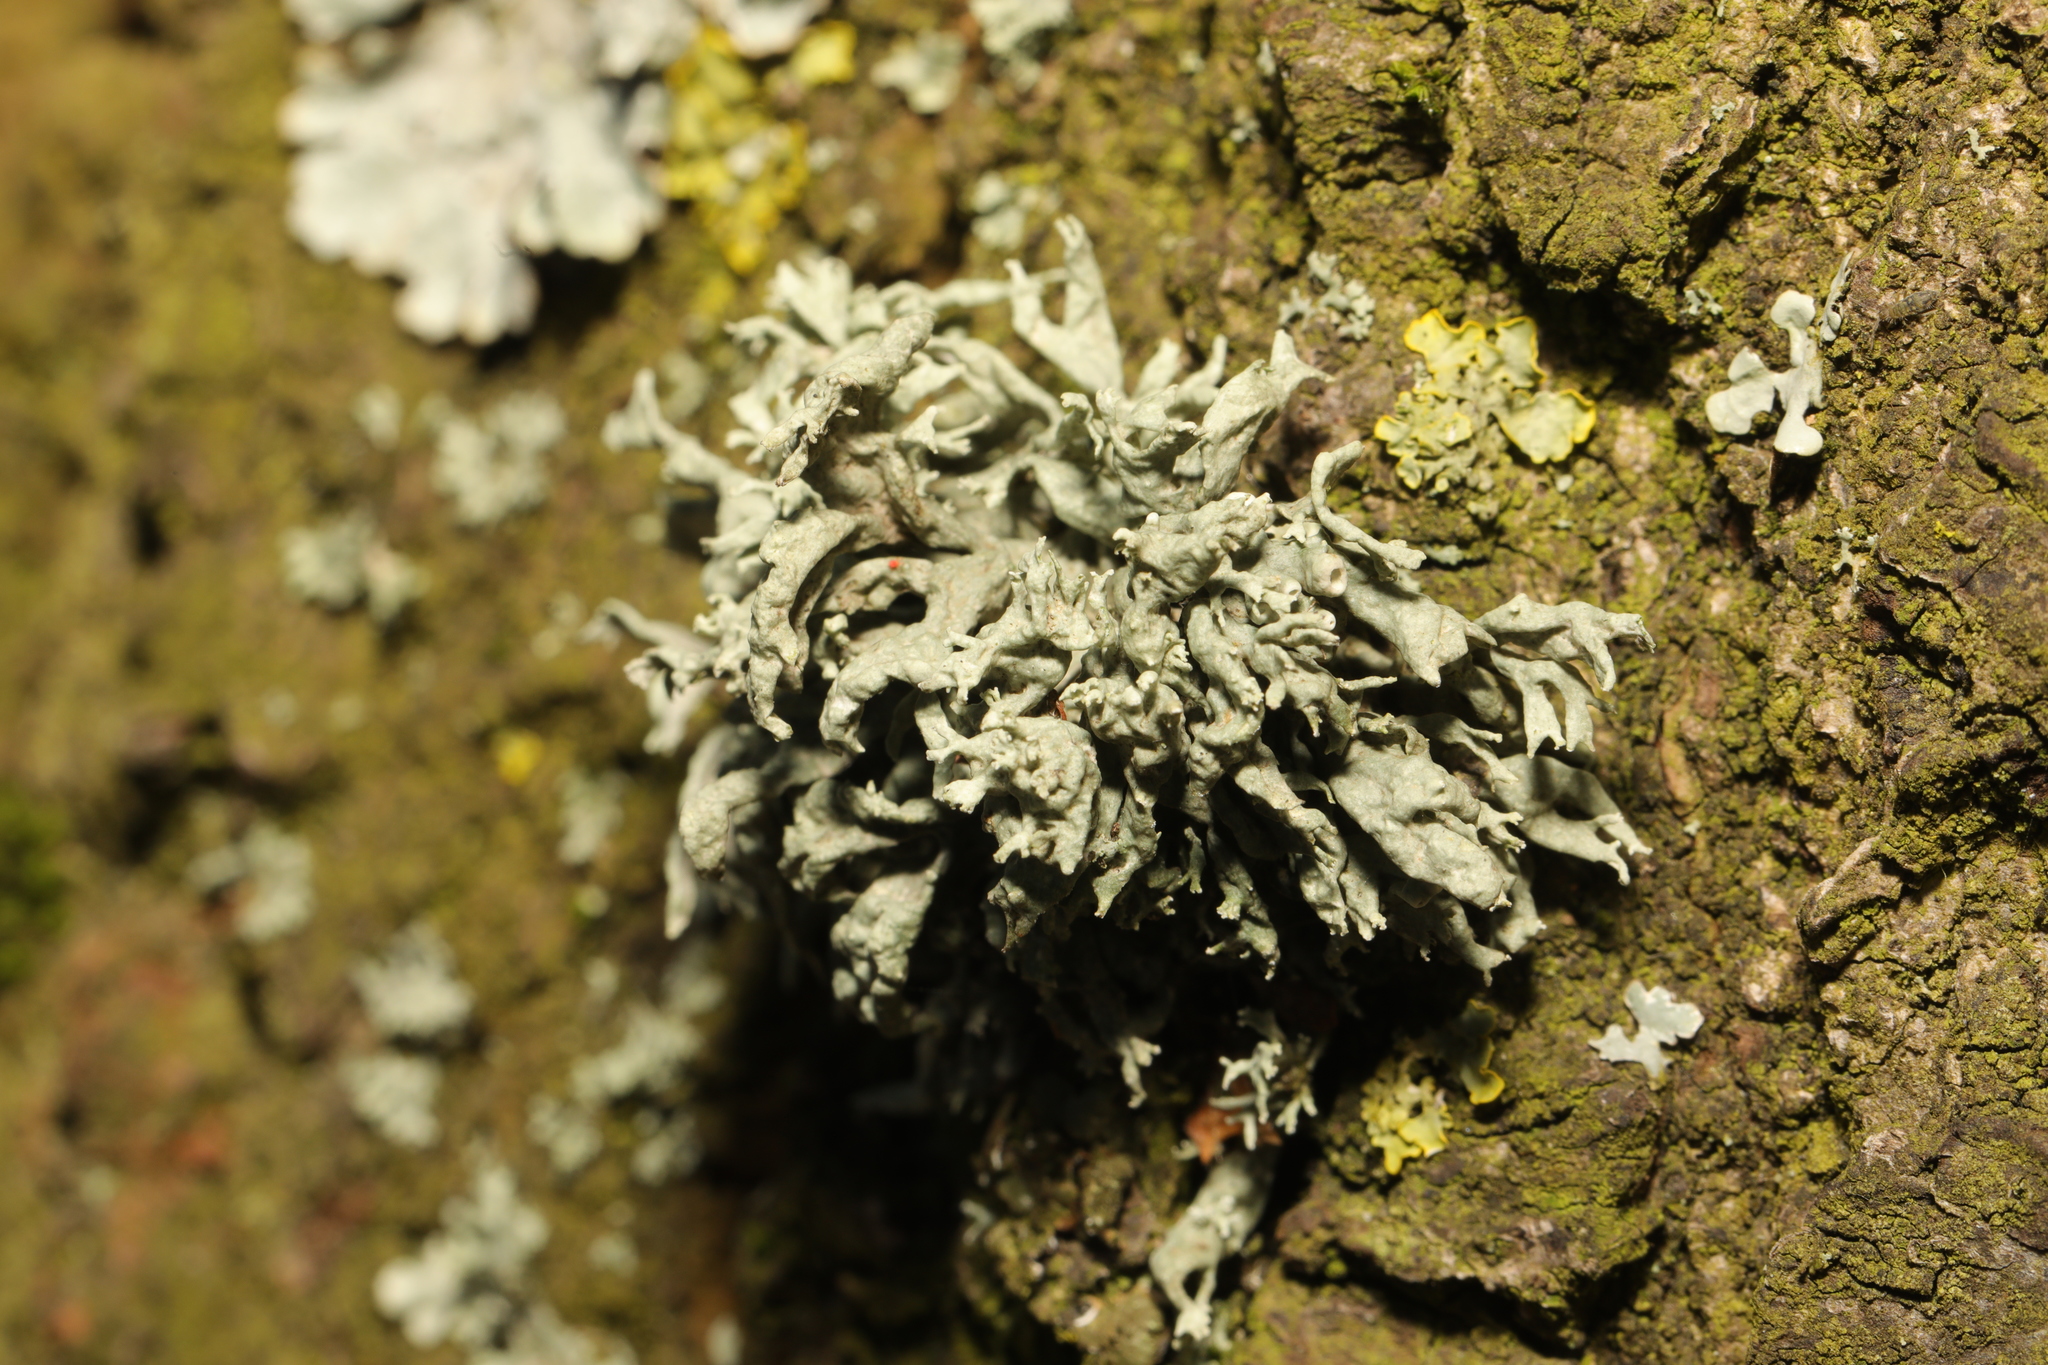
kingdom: Fungi
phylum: Ascomycota
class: Lecanoromycetes
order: Lecanorales
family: Parmeliaceae
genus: Evernia
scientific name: Evernia prunastri
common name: Oak moss
